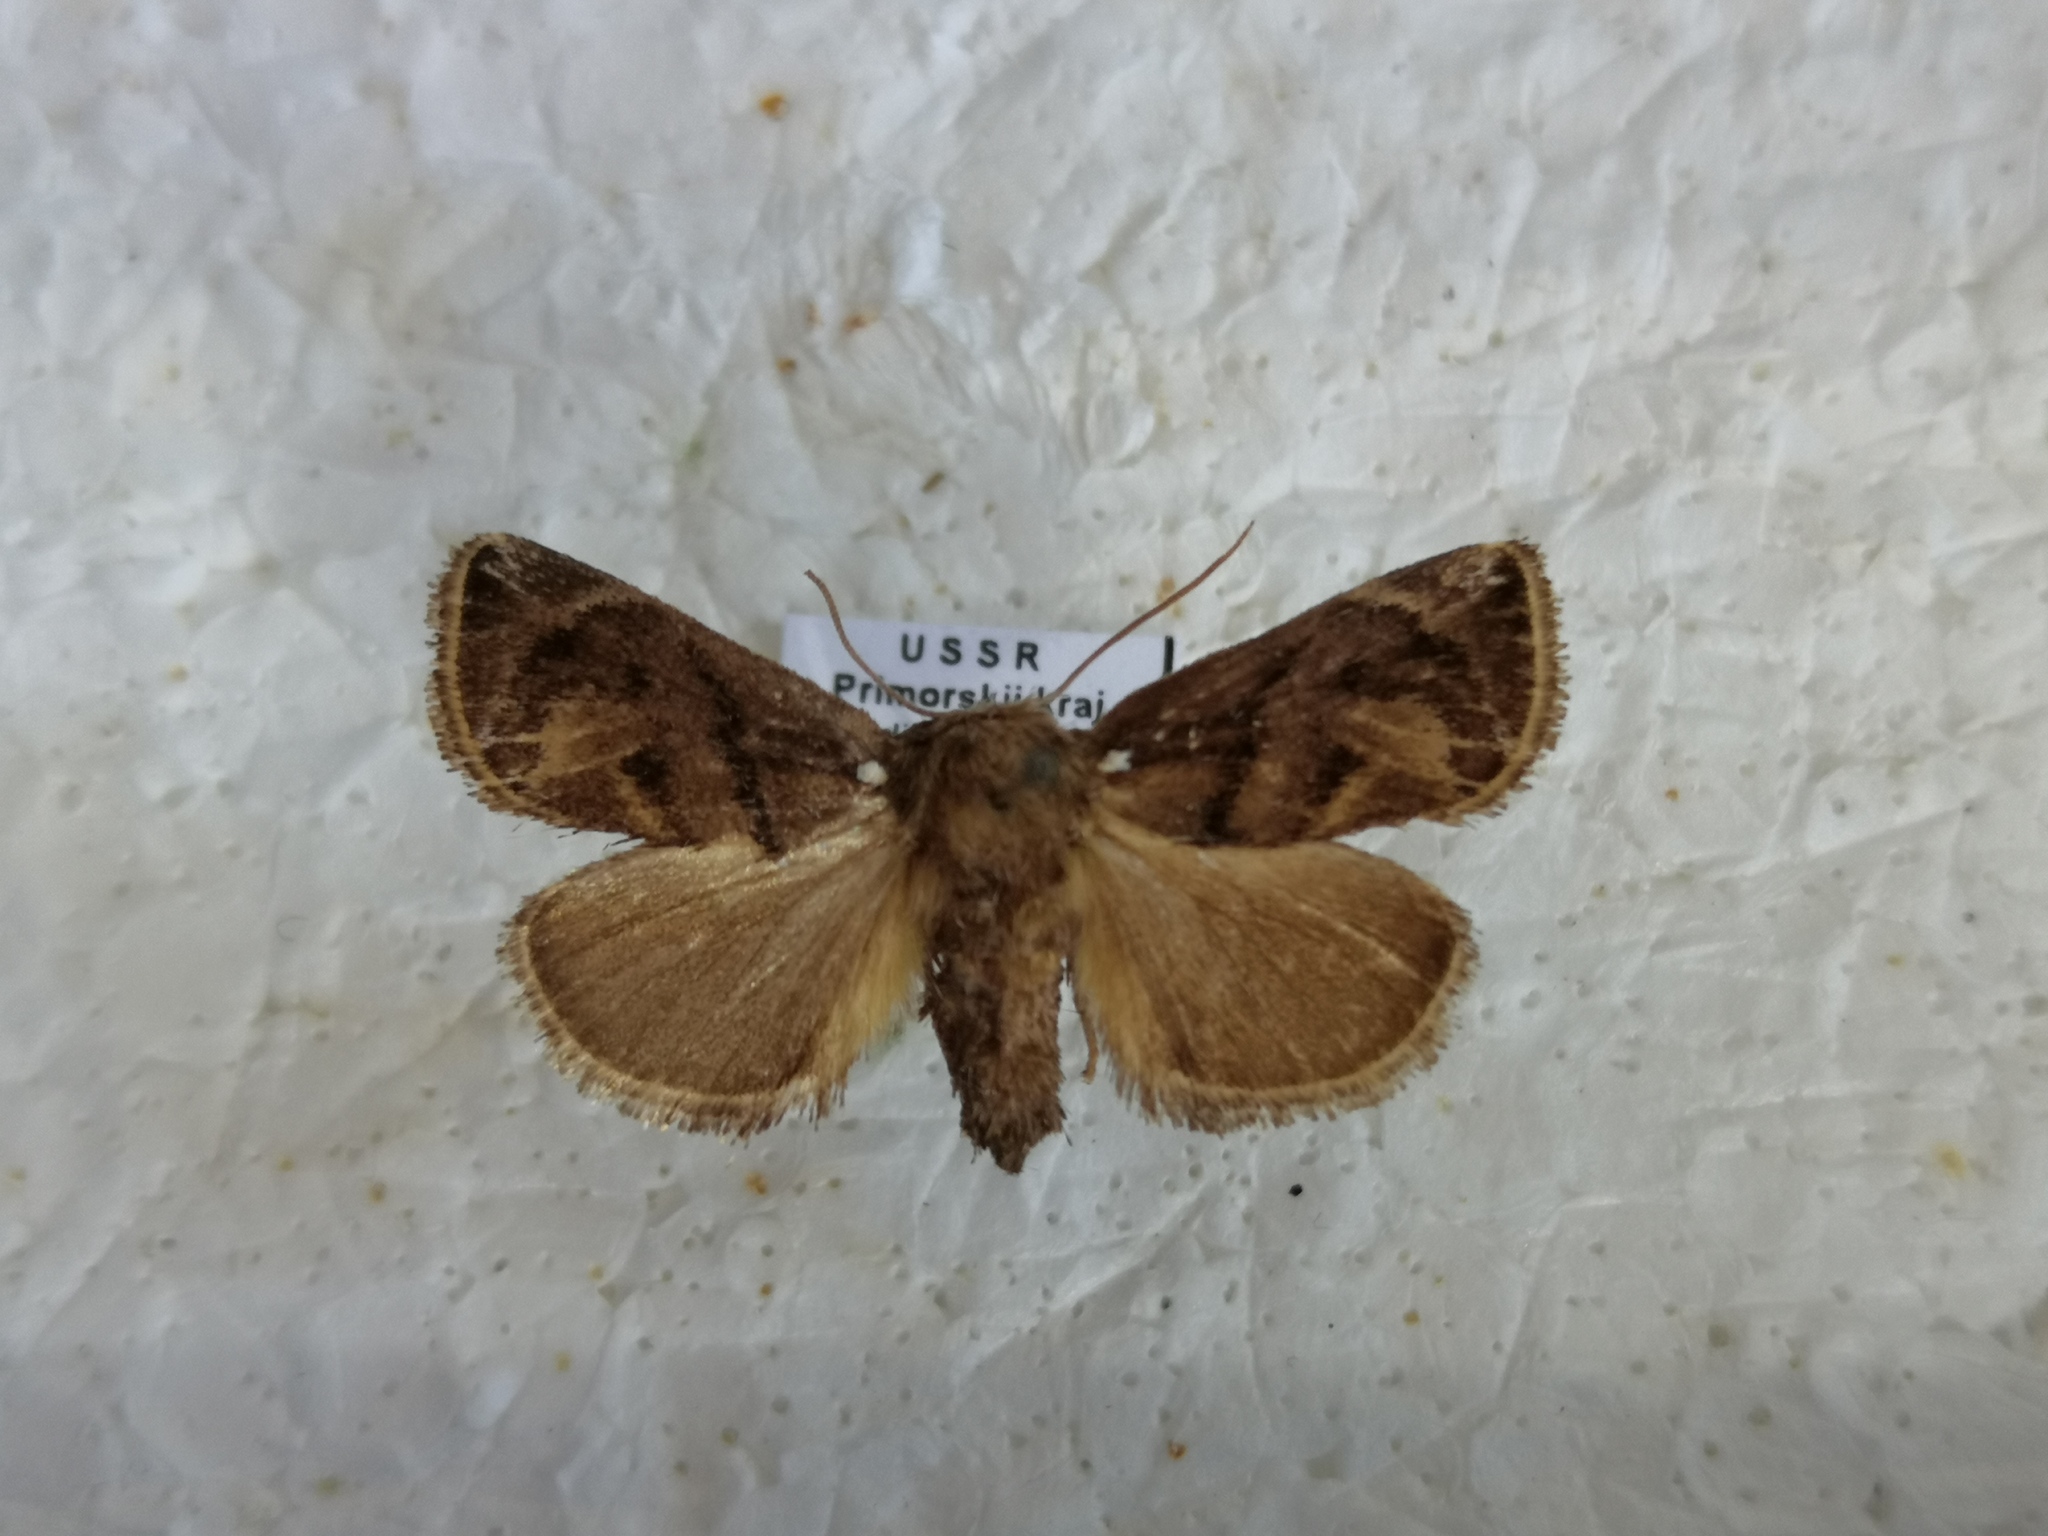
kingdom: Animalia
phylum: Arthropoda
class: Insecta
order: Lepidoptera
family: Limacodidae
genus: Austrapoda
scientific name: Austrapoda dentatus
